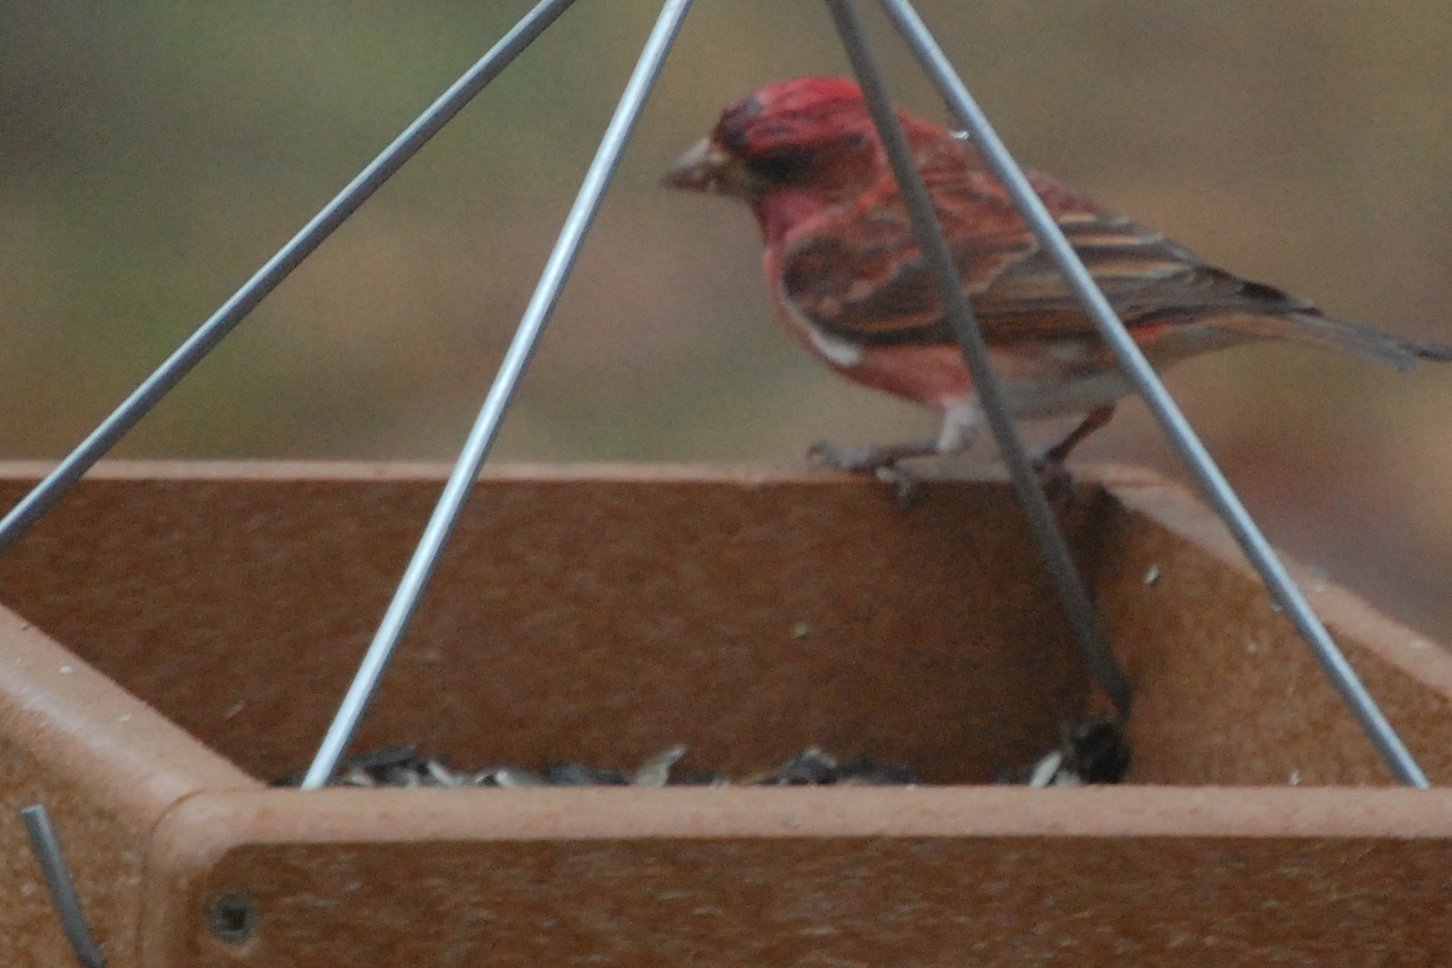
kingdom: Animalia
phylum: Chordata
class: Aves
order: Passeriformes
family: Fringillidae
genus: Haemorhous
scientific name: Haemorhous purpureus
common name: Purple finch
